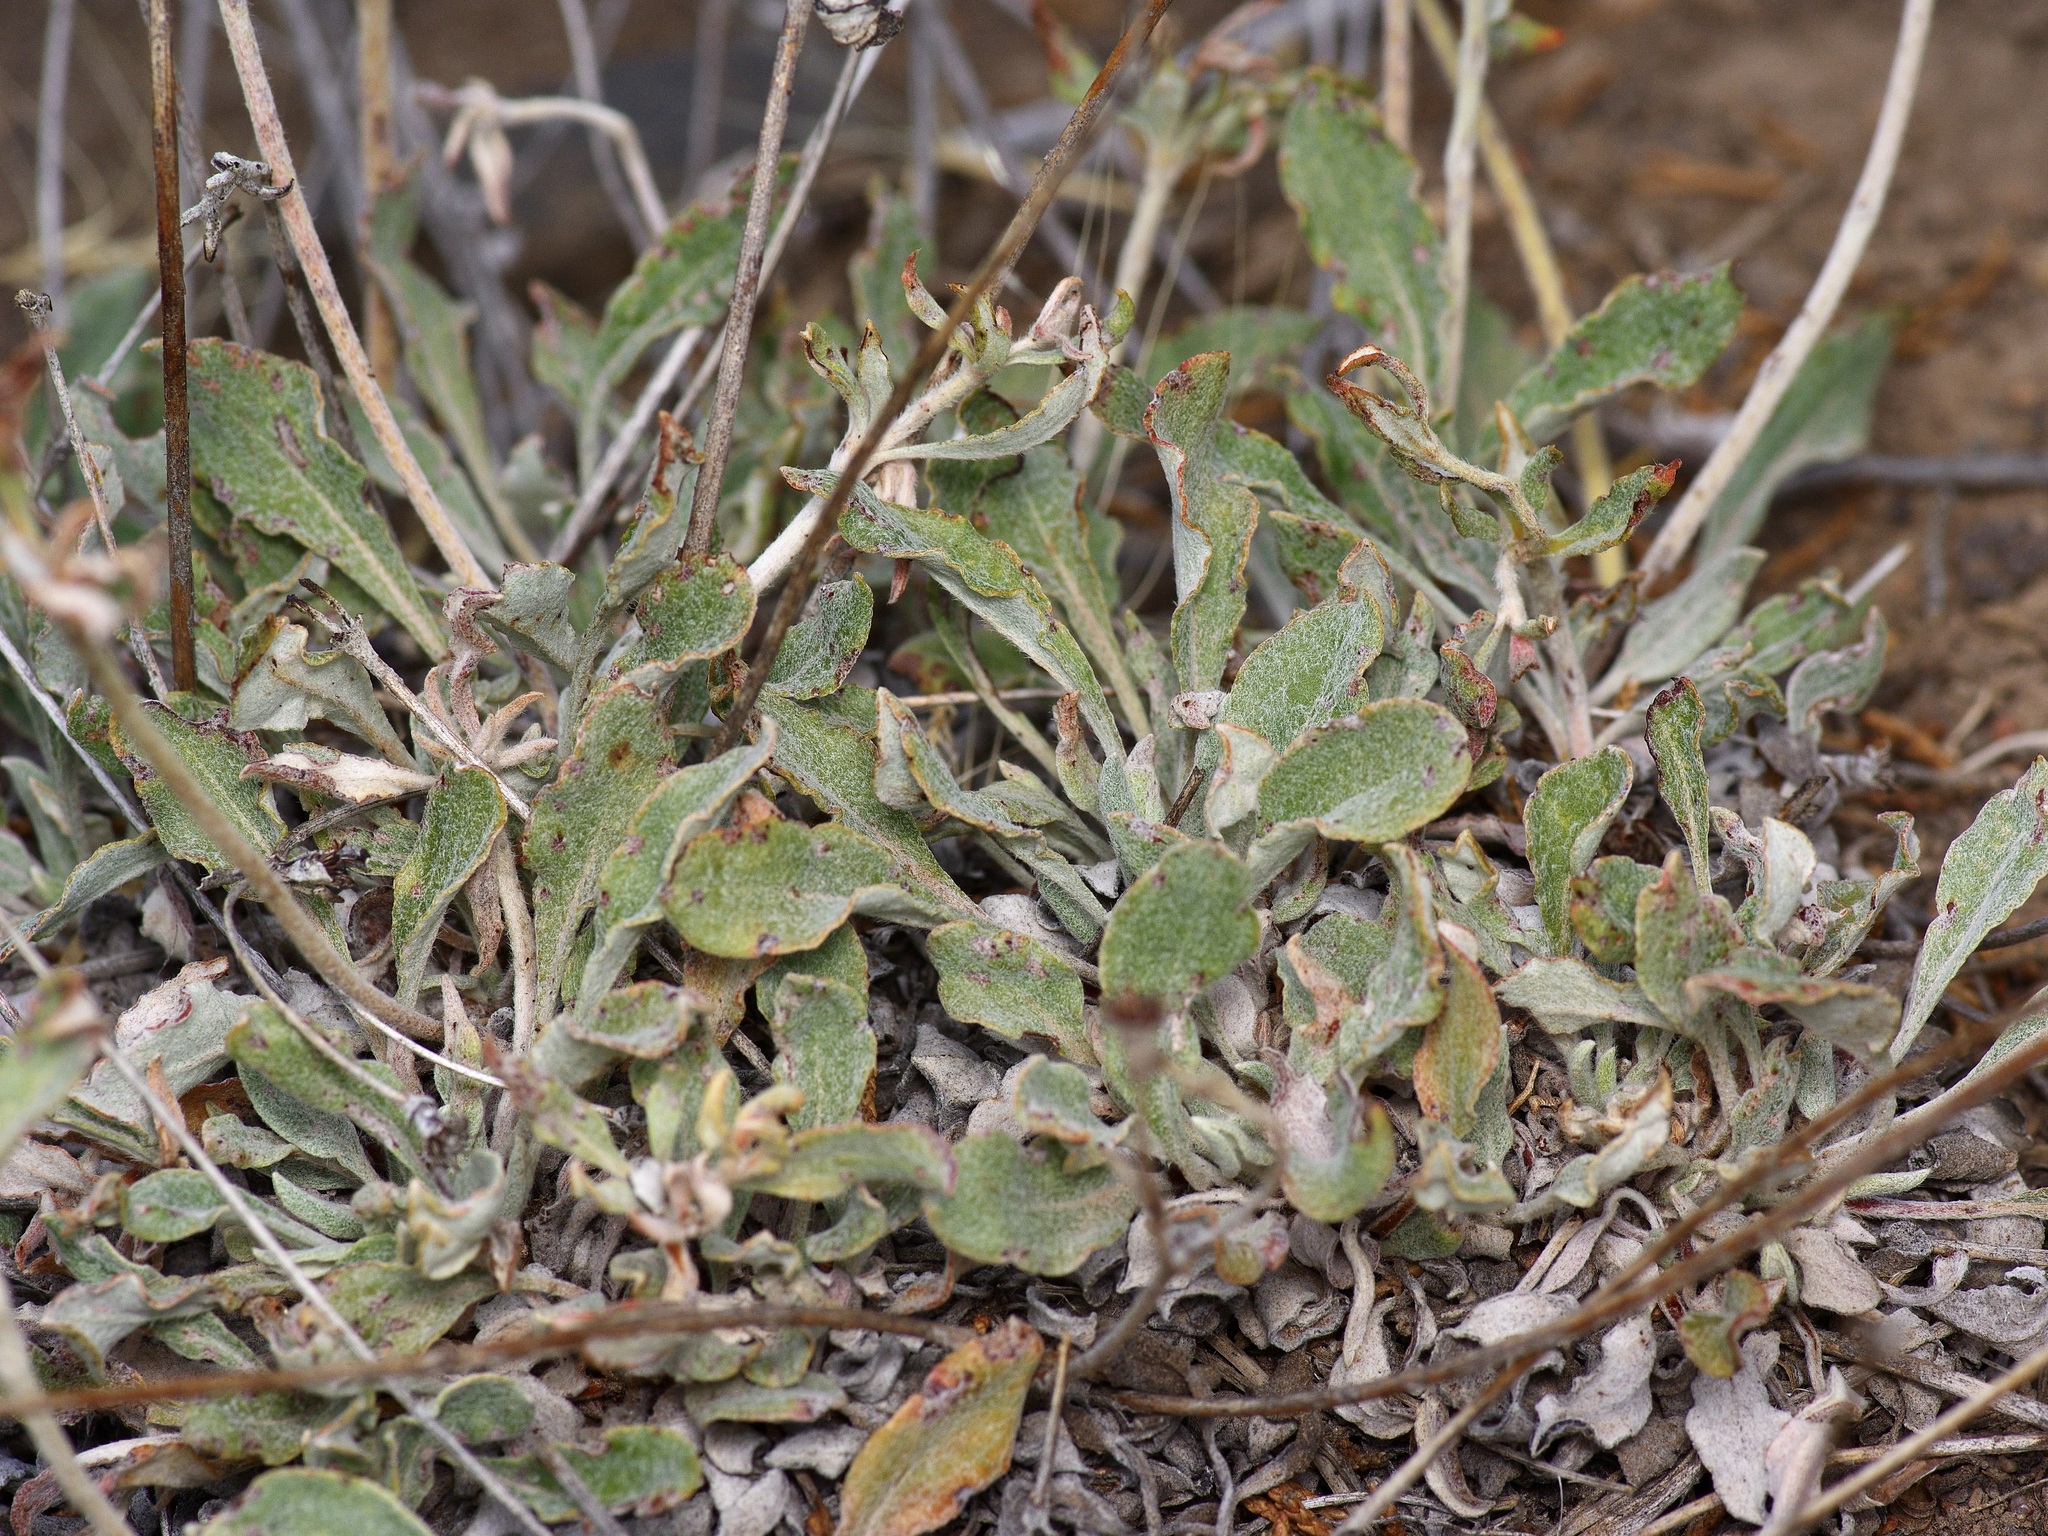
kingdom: Plantae
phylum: Tracheophyta
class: Magnoliopsida
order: Caryophyllales
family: Polygonaceae
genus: Eriogonum
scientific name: Eriogonum jamesii
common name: Antelope-sage
